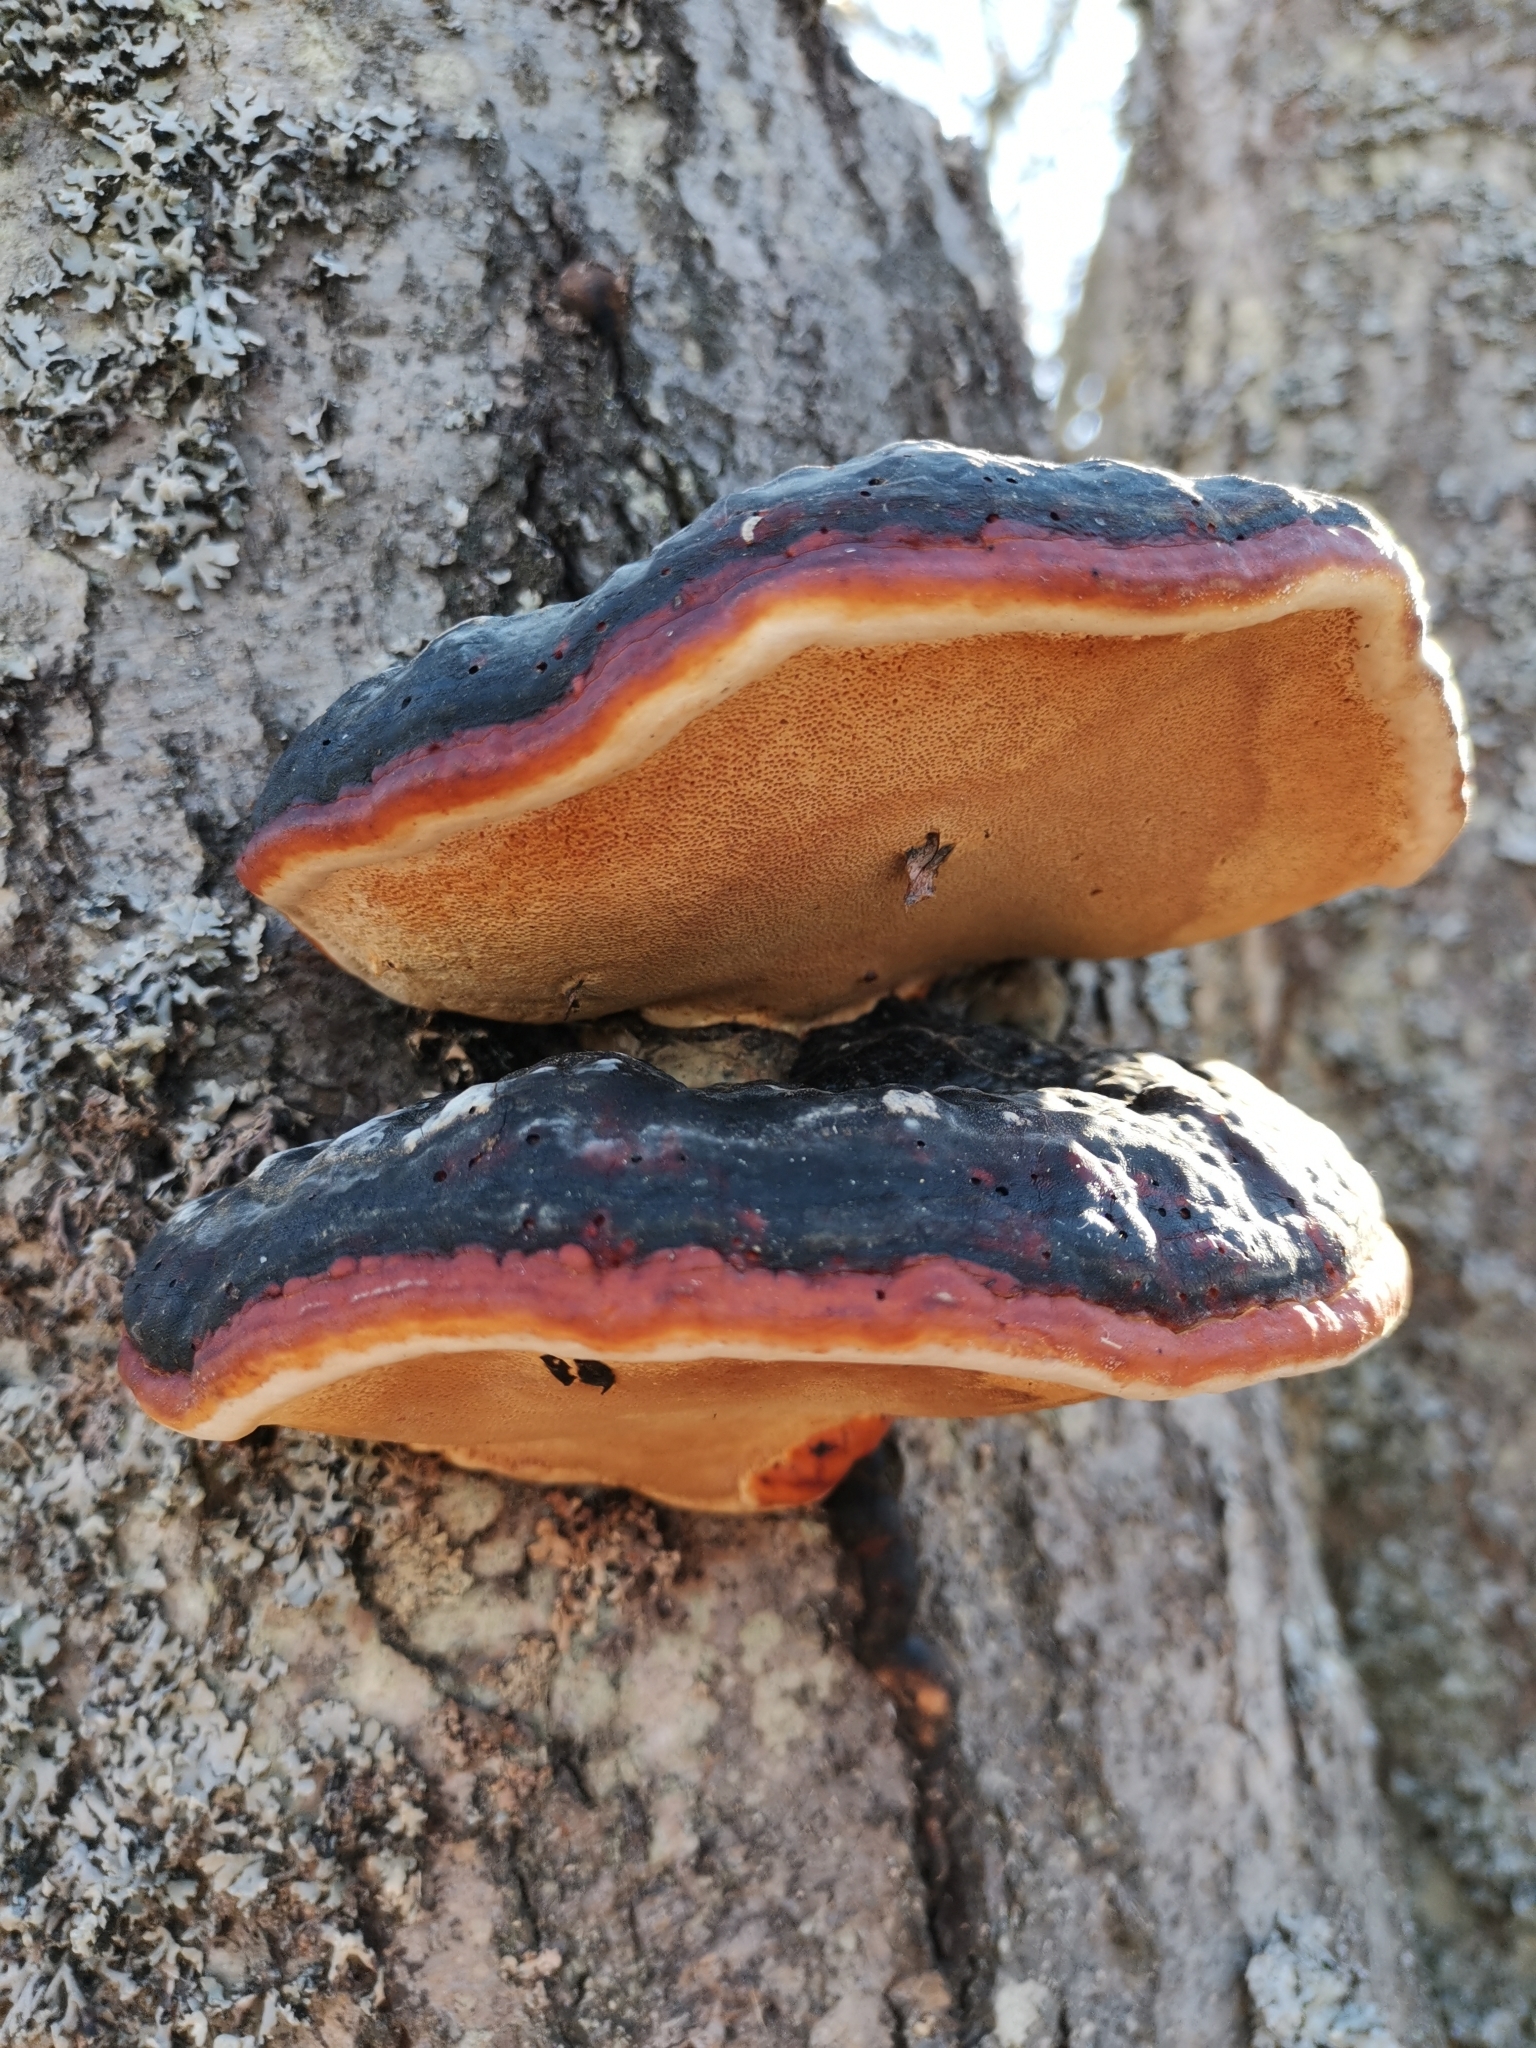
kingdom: Fungi
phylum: Basidiomycota
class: Agaricomycetes
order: Polyporales
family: Fomitopsidaceae
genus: Fomitopsis
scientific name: Fomitopsis pinicola
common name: Red-belted bracket
